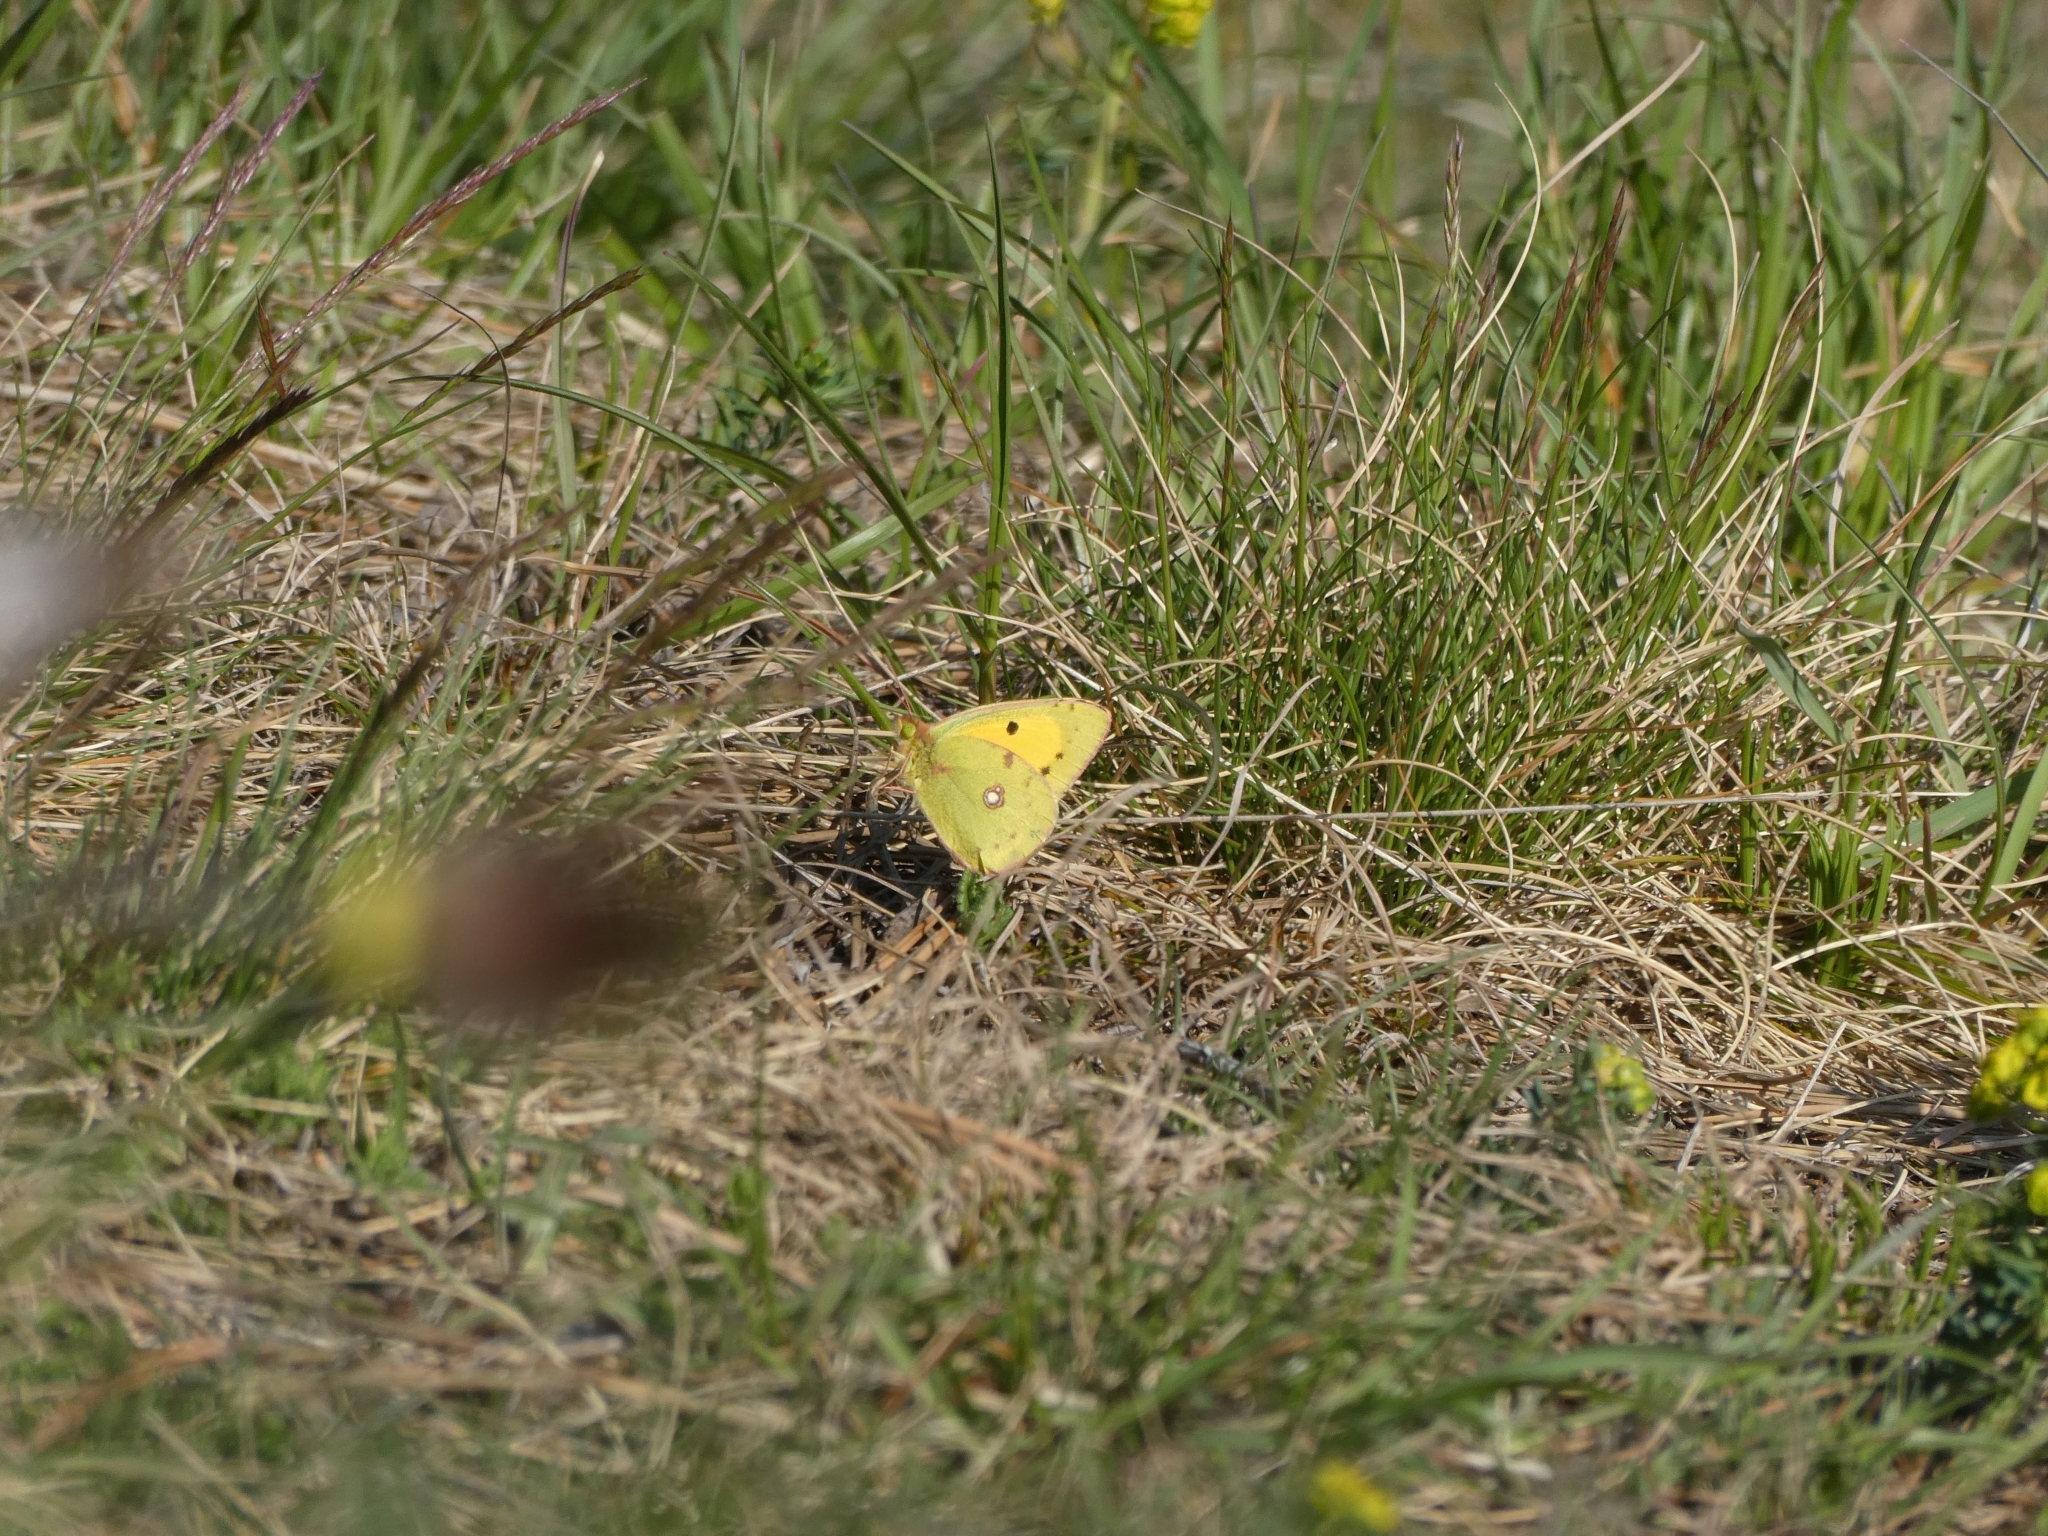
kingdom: Animalia
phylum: Arthropoda
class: Insecta
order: Lepidoptera
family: Pieridae
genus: Colias
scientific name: Colias croceus
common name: Clouded yellow
